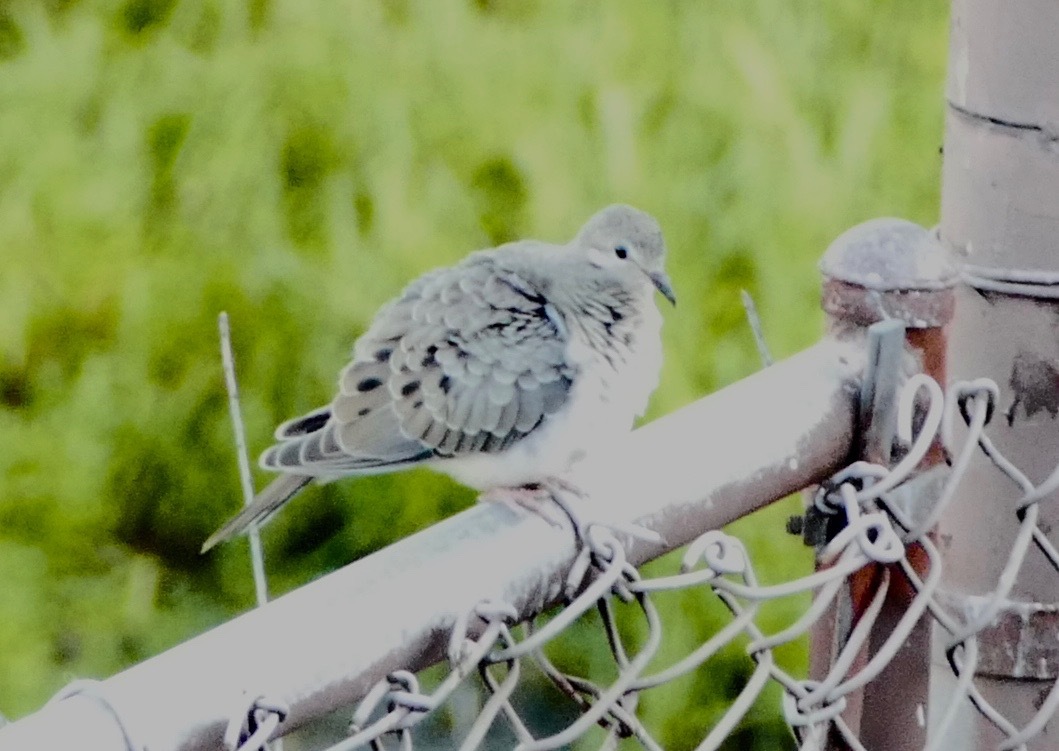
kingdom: Animalia
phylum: Chordata
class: Aves
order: Columbiformes
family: Columbidae
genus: Zenaida
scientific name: Zenaida macroura
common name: Mourning dove
